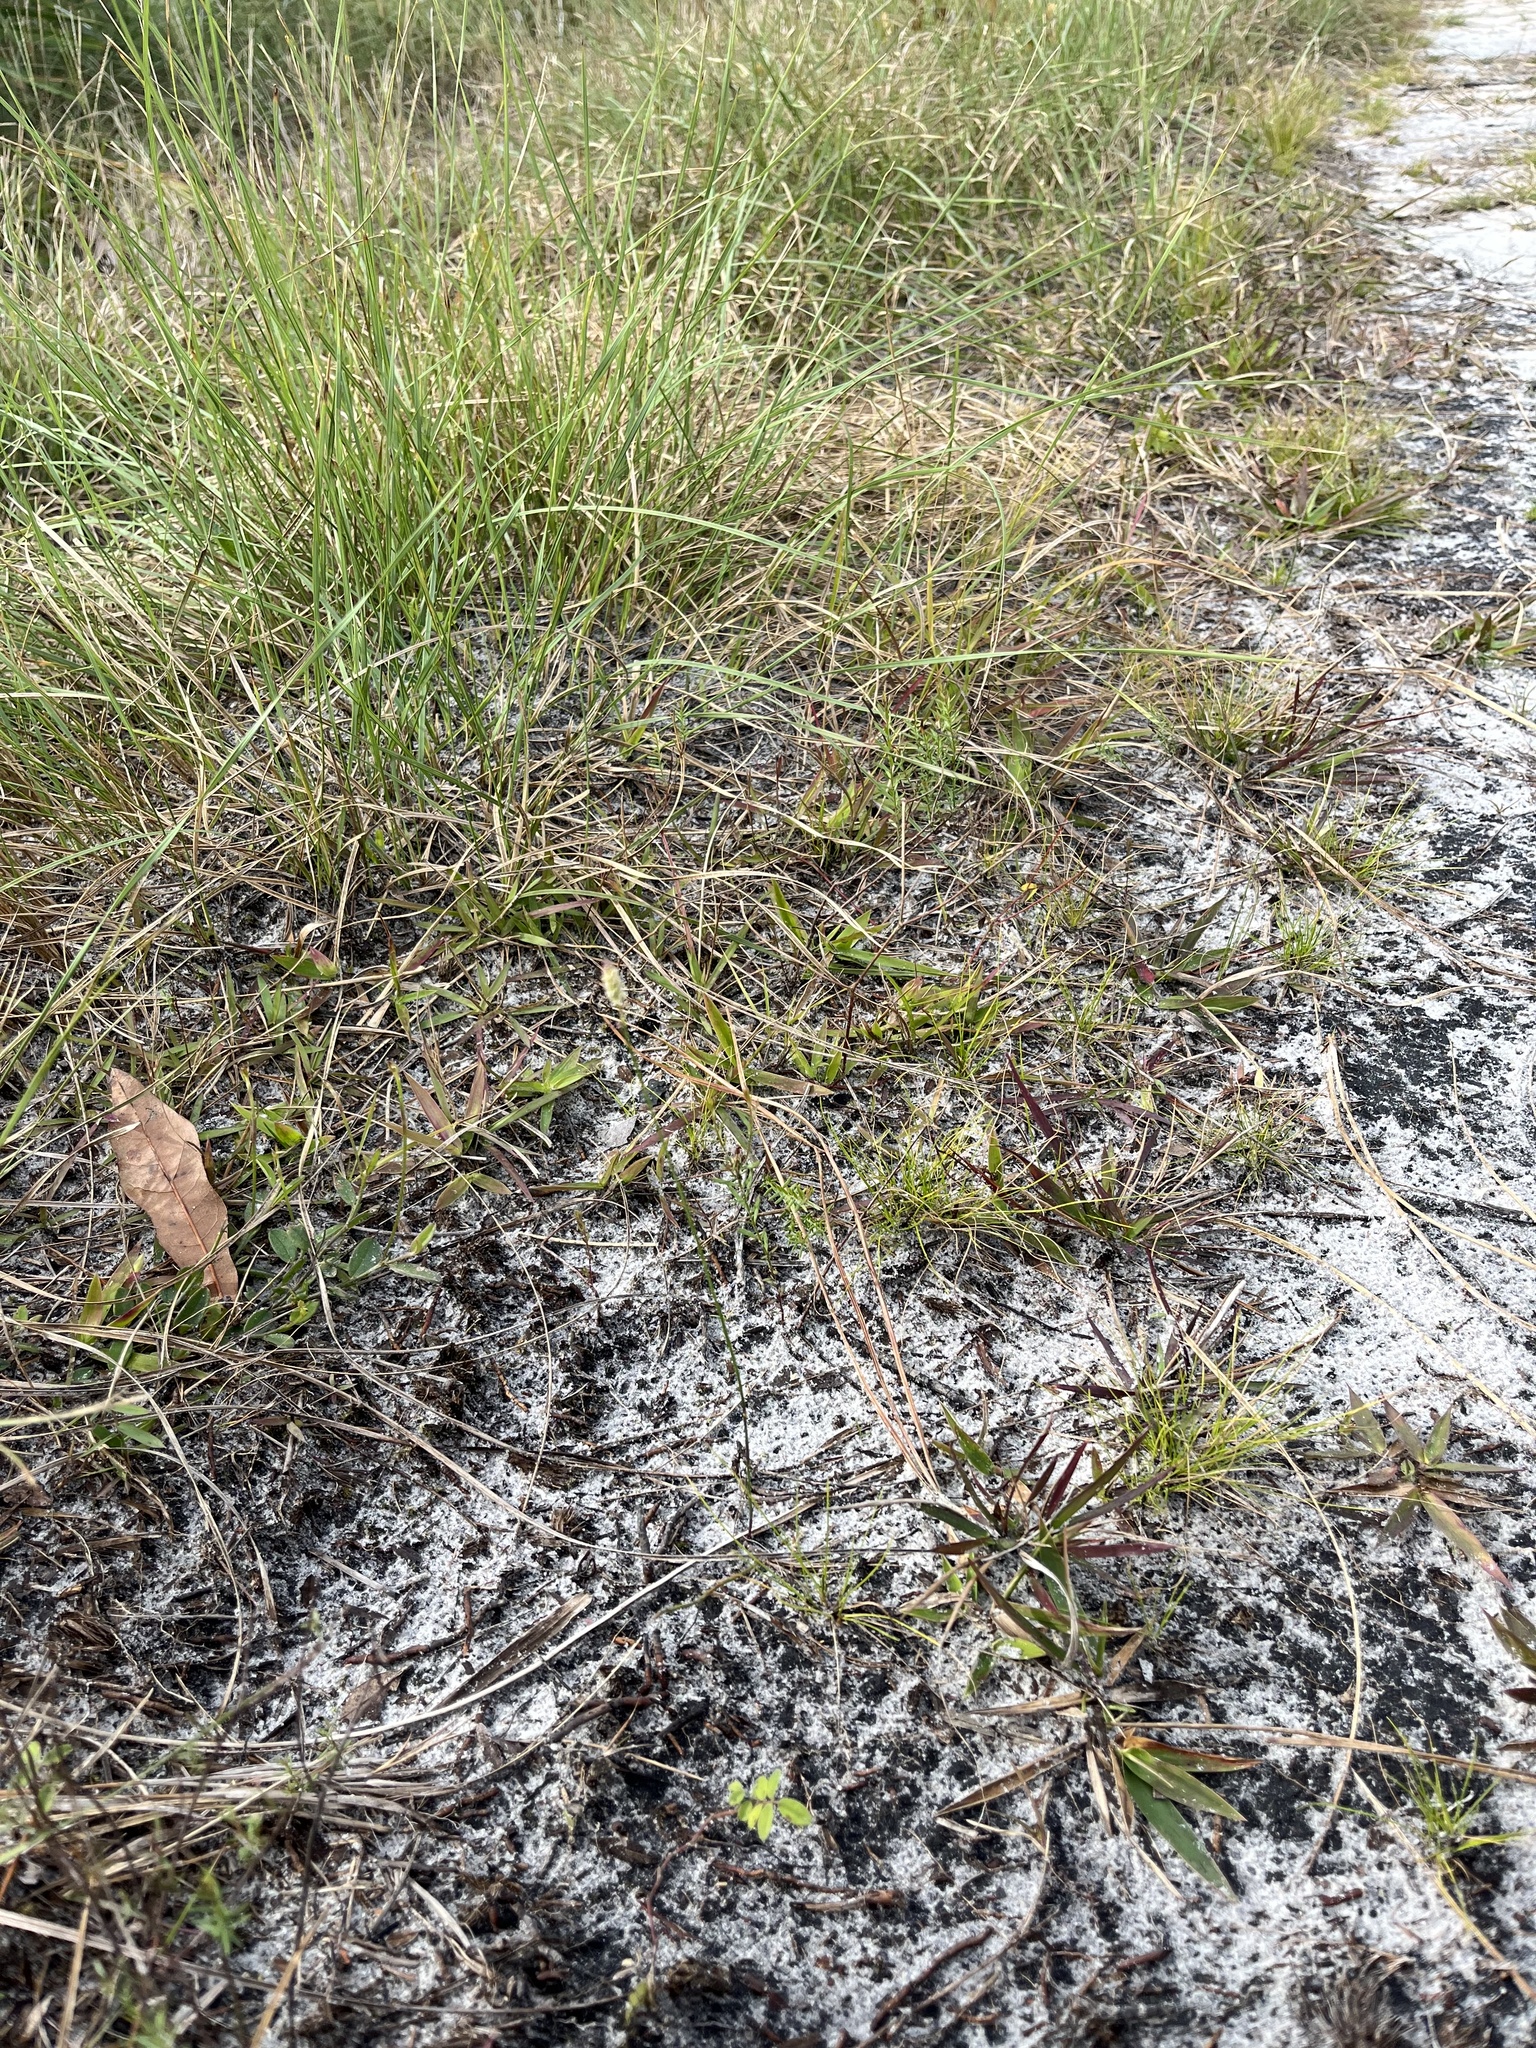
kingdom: Plantae
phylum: Tracheophyta
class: Magnoliopsida
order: Fabales
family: Polygalaceae
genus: Polygala
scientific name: Polygala setacea
